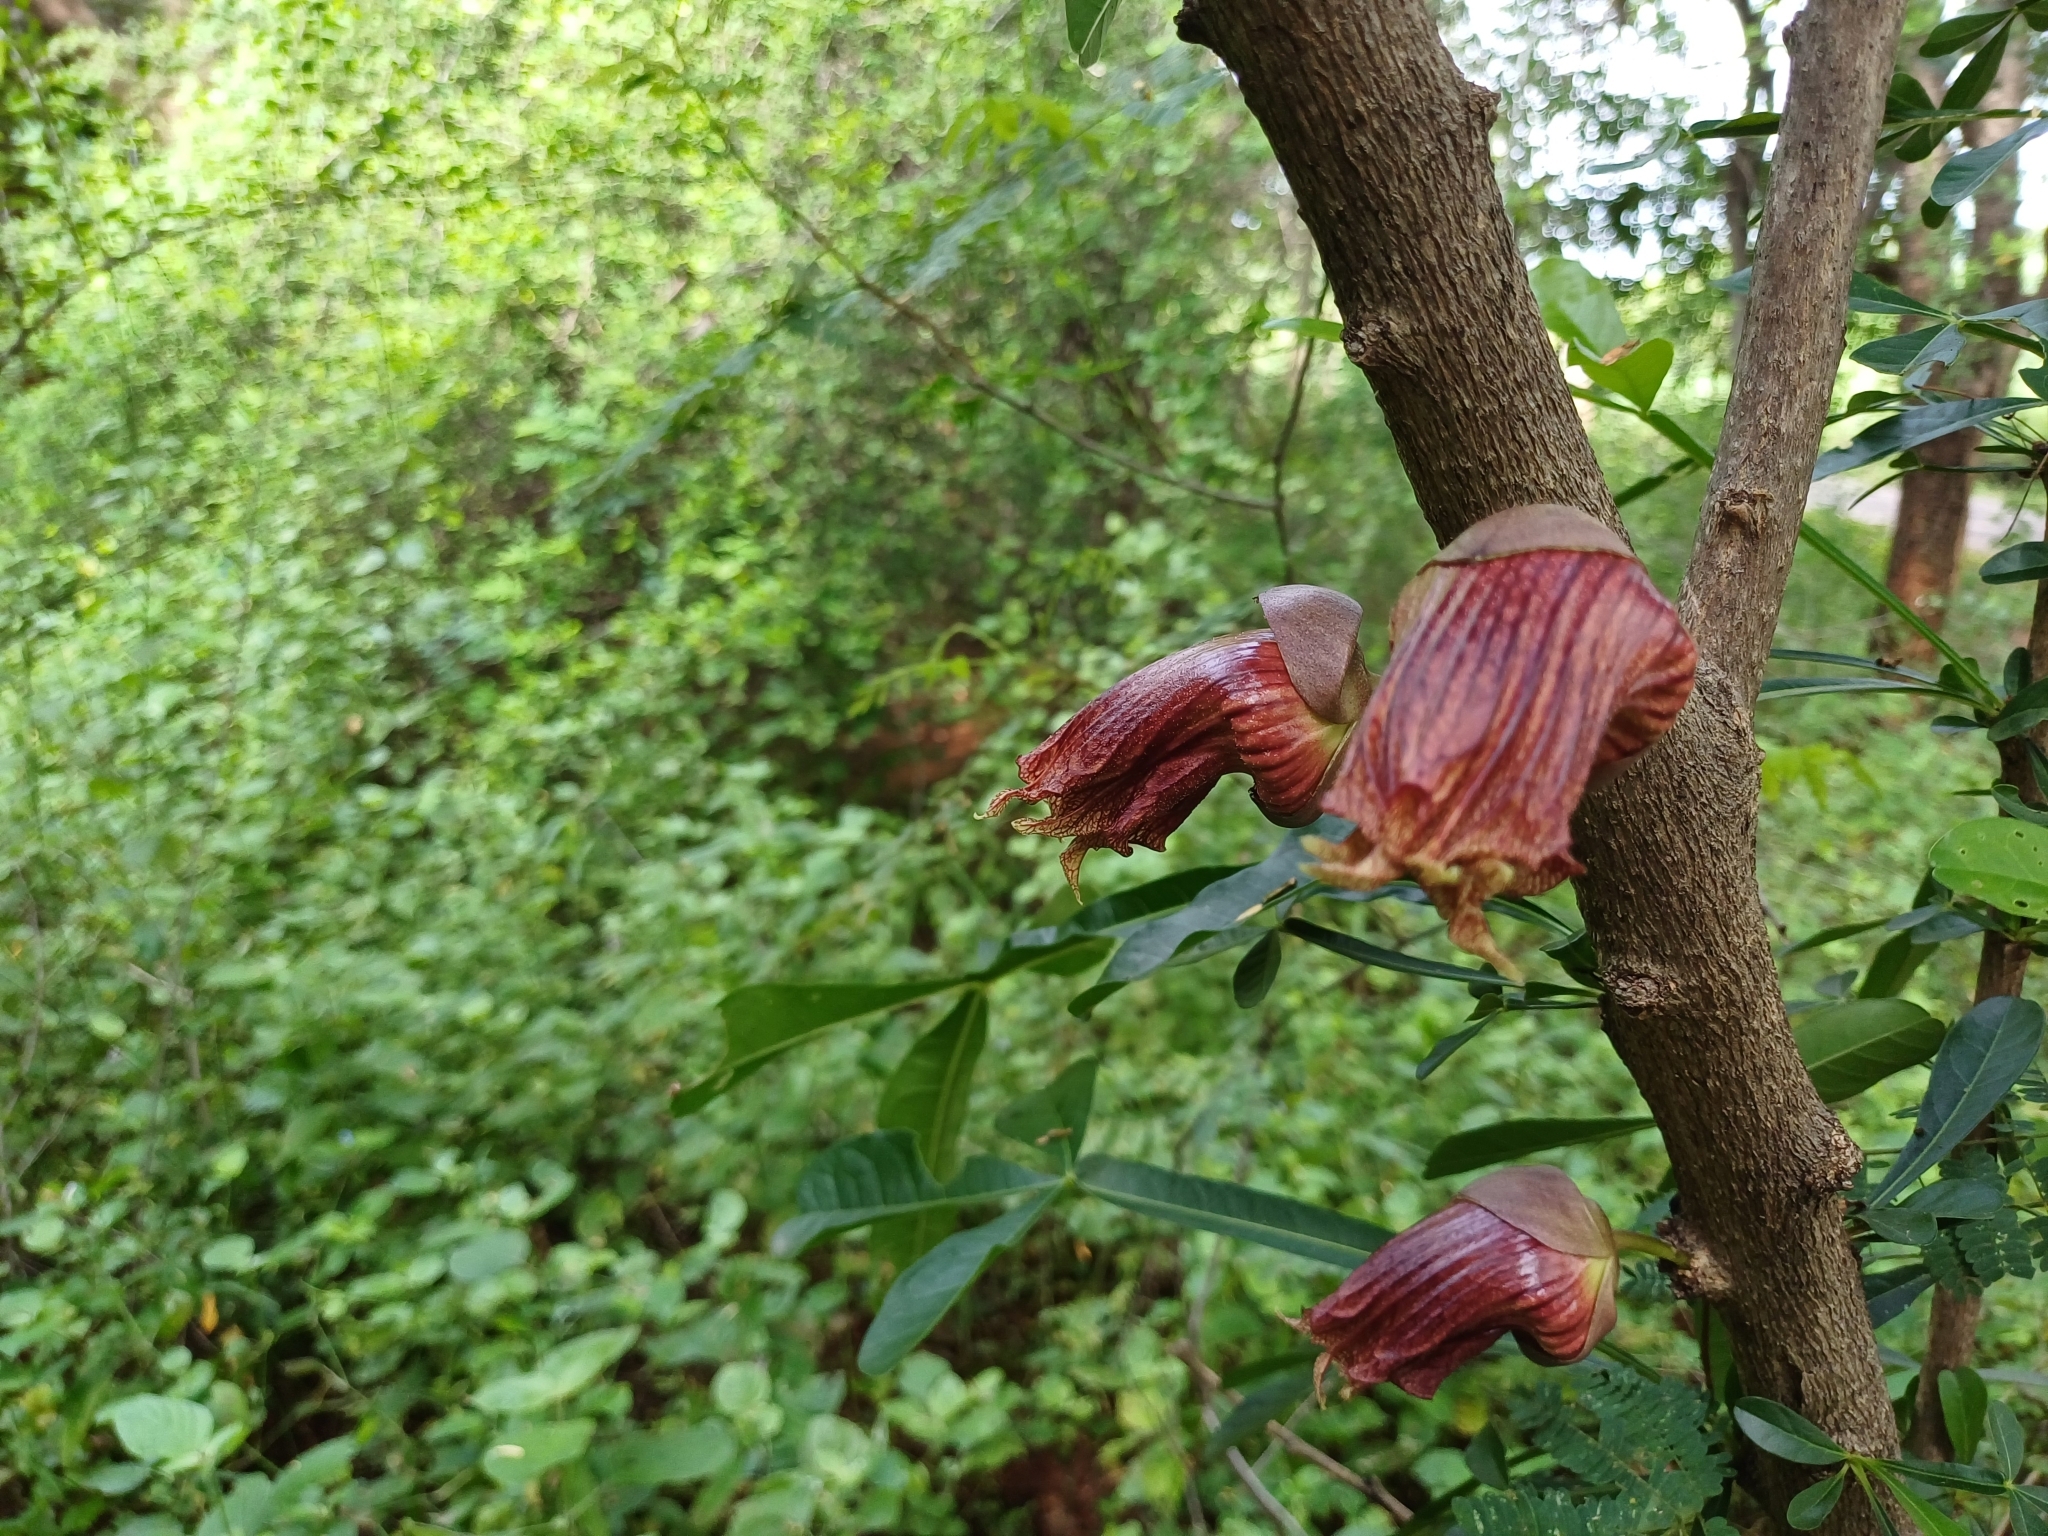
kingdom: Plantae
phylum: Tracheophyta
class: Magnoliopsida
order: Lamiales
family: Bignoniaceae
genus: Crescentia
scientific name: Crescentia alata
